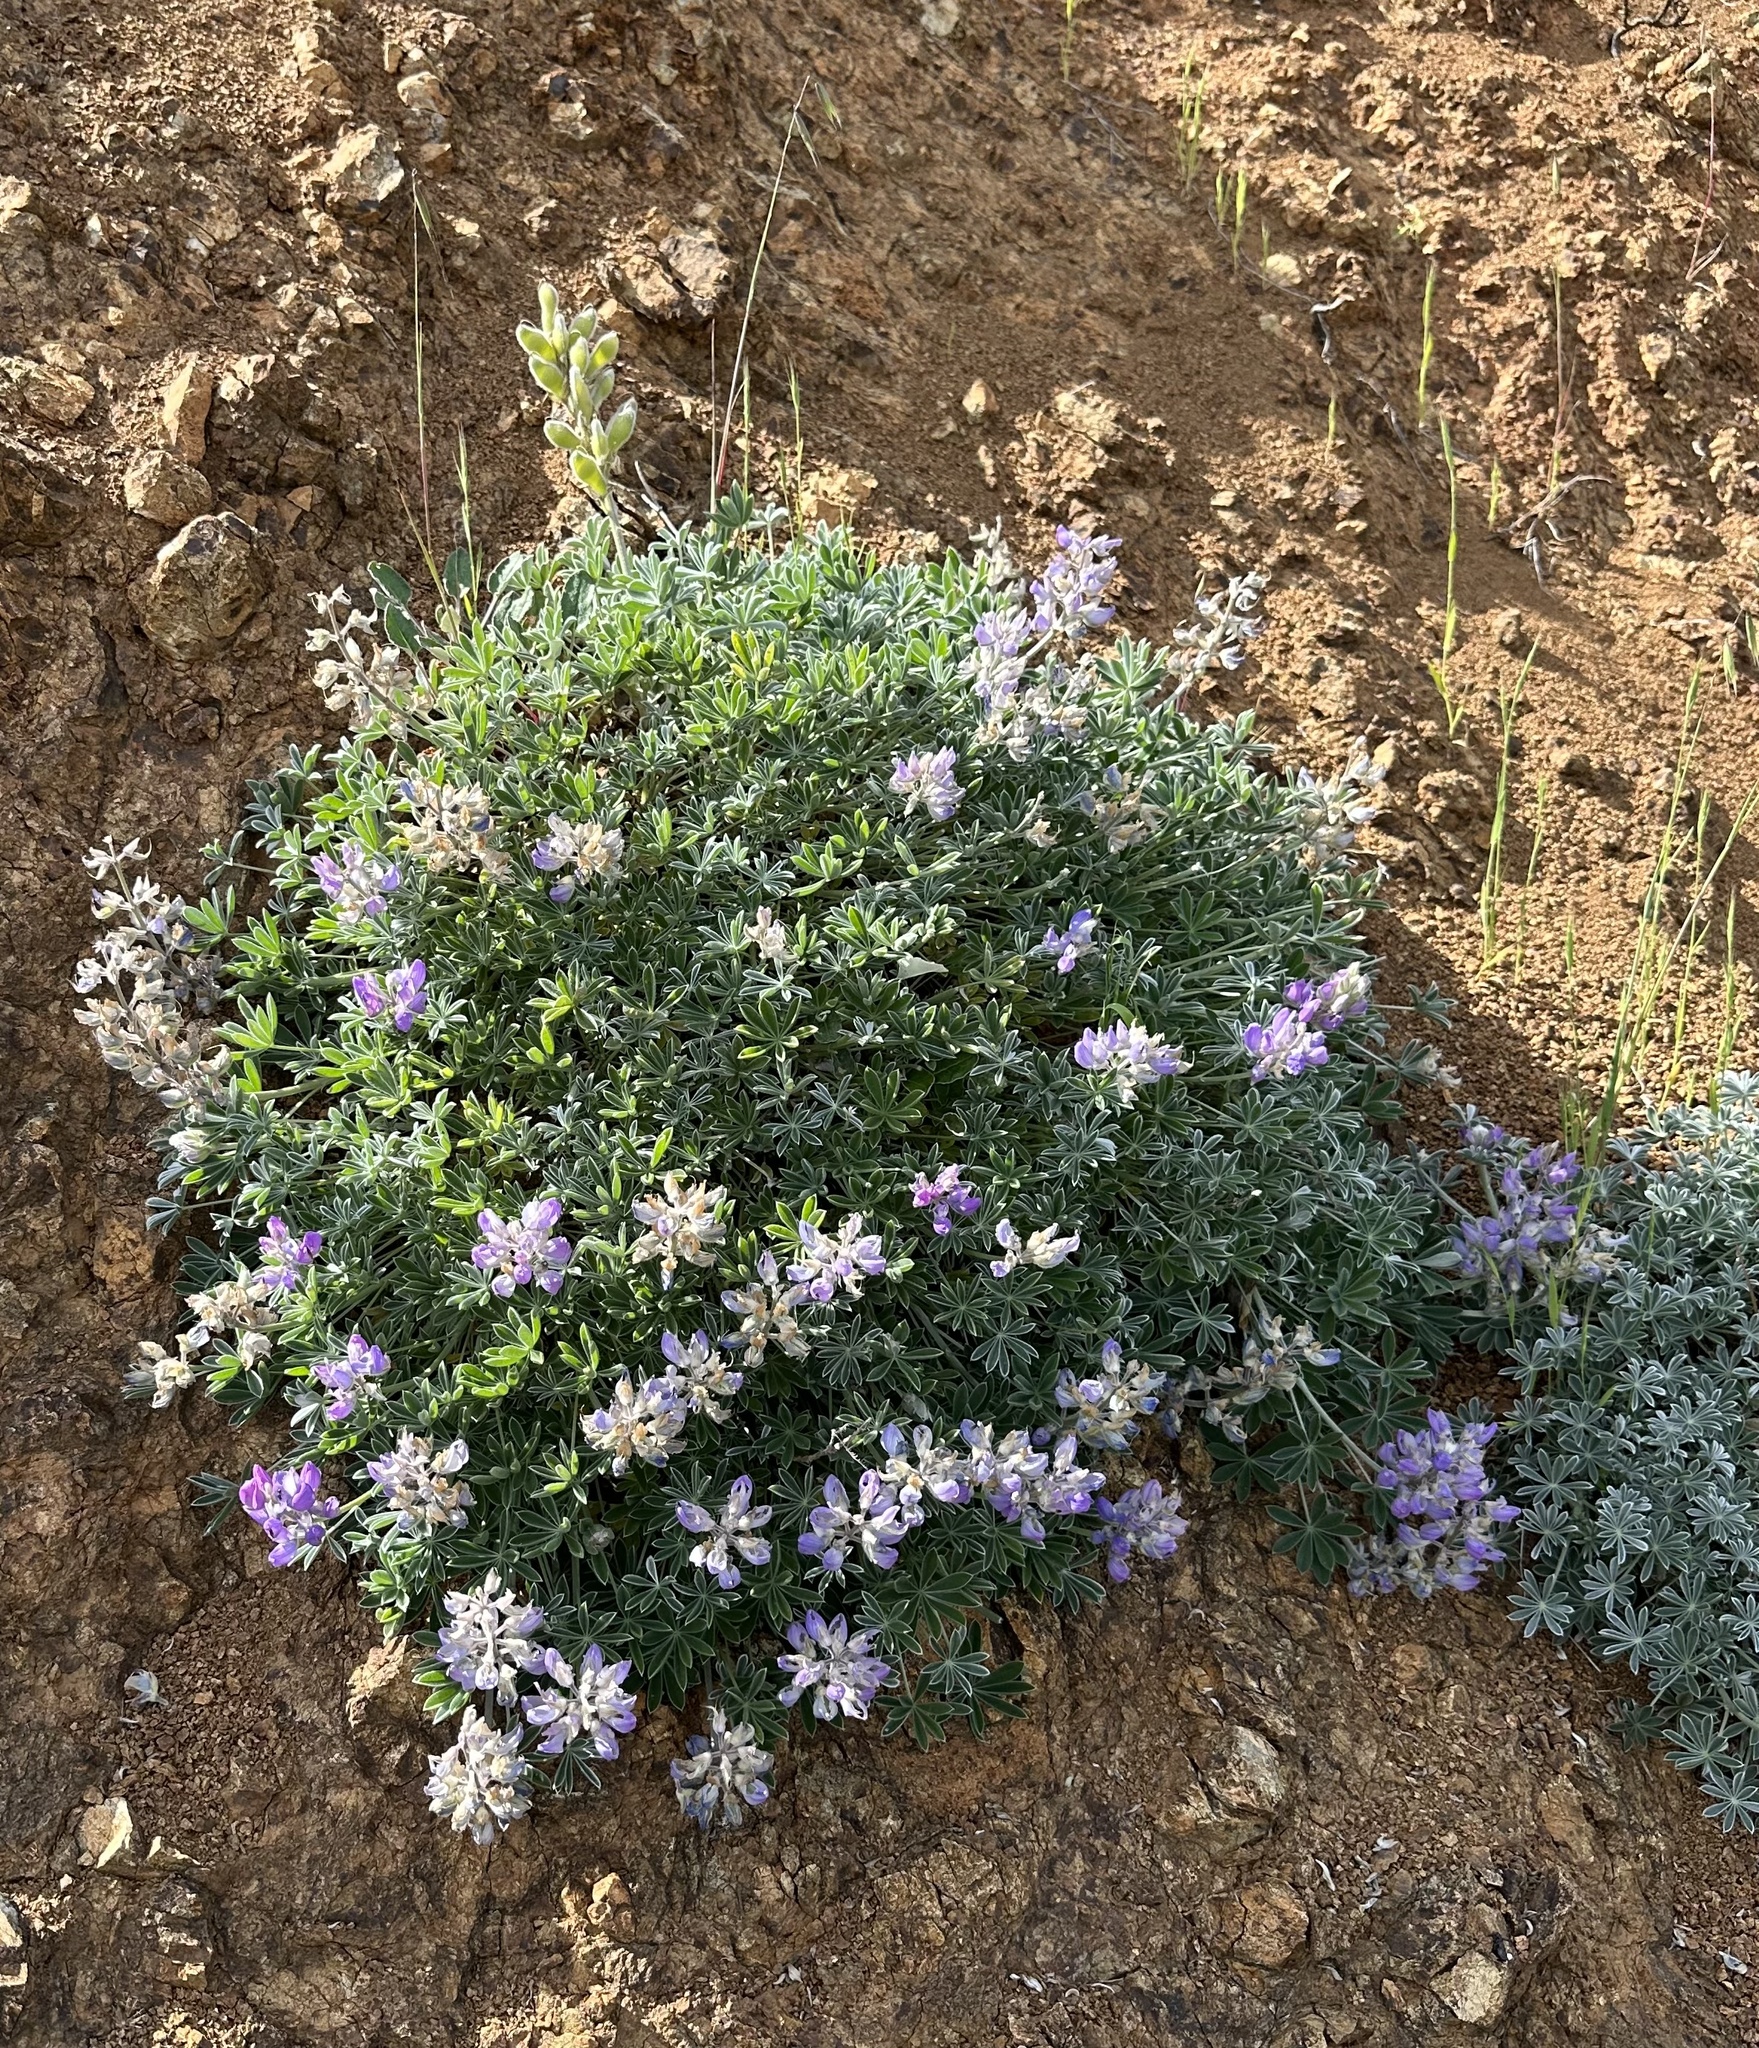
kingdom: Plantae
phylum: Tracheophyta
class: Magnoliopsida
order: Fabales
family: Fabaceae
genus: Lupinus
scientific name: Lupinus albifrons
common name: Foothill lupine
